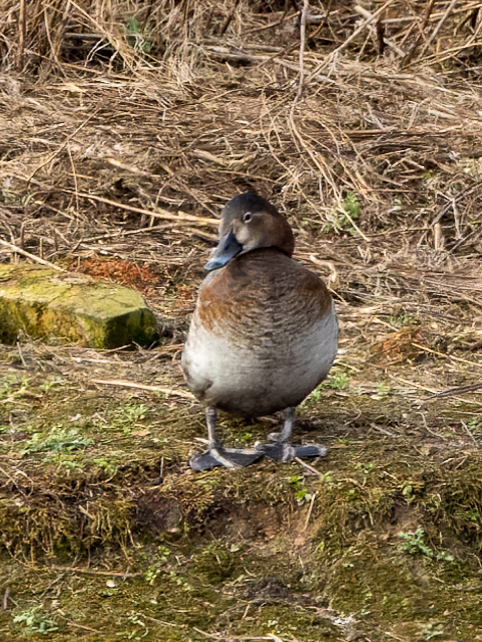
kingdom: Animalia
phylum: Chordata
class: Aves
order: Anseriformes
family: Anatidae
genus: Aythya
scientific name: Aythya ferina
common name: Common pochard
